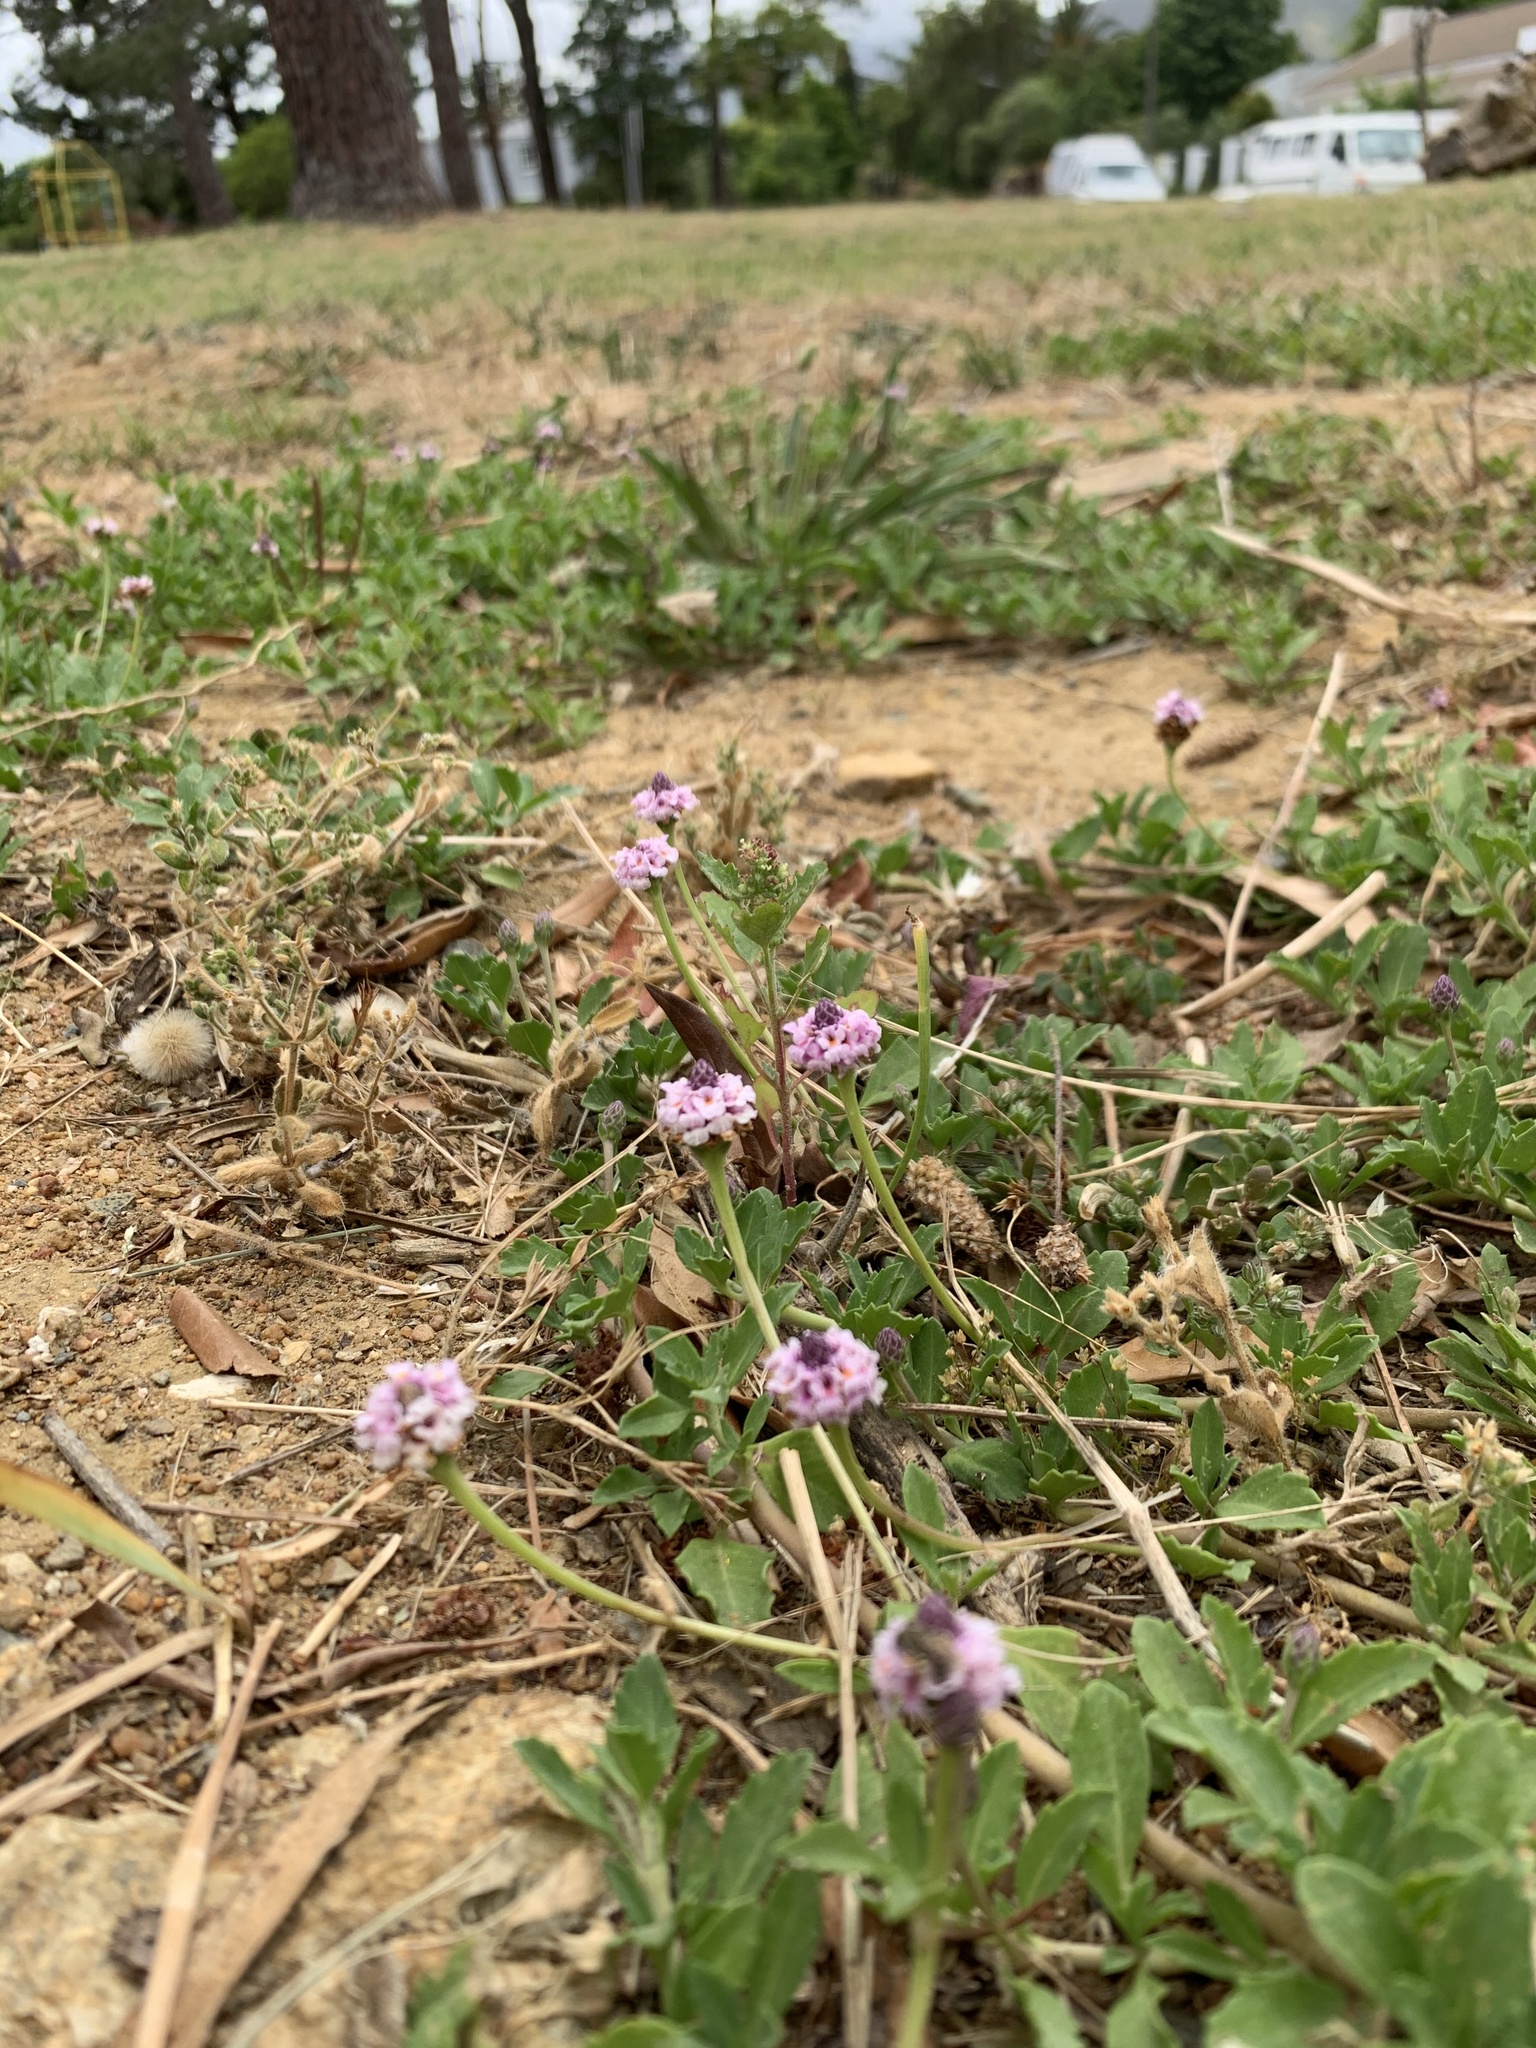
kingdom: Plantae
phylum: Tracheophyta
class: Magnoliopsida
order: Lamiales
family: Verbenaceae
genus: Phyla
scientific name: Phyla nodiflora
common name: Frogfruit
